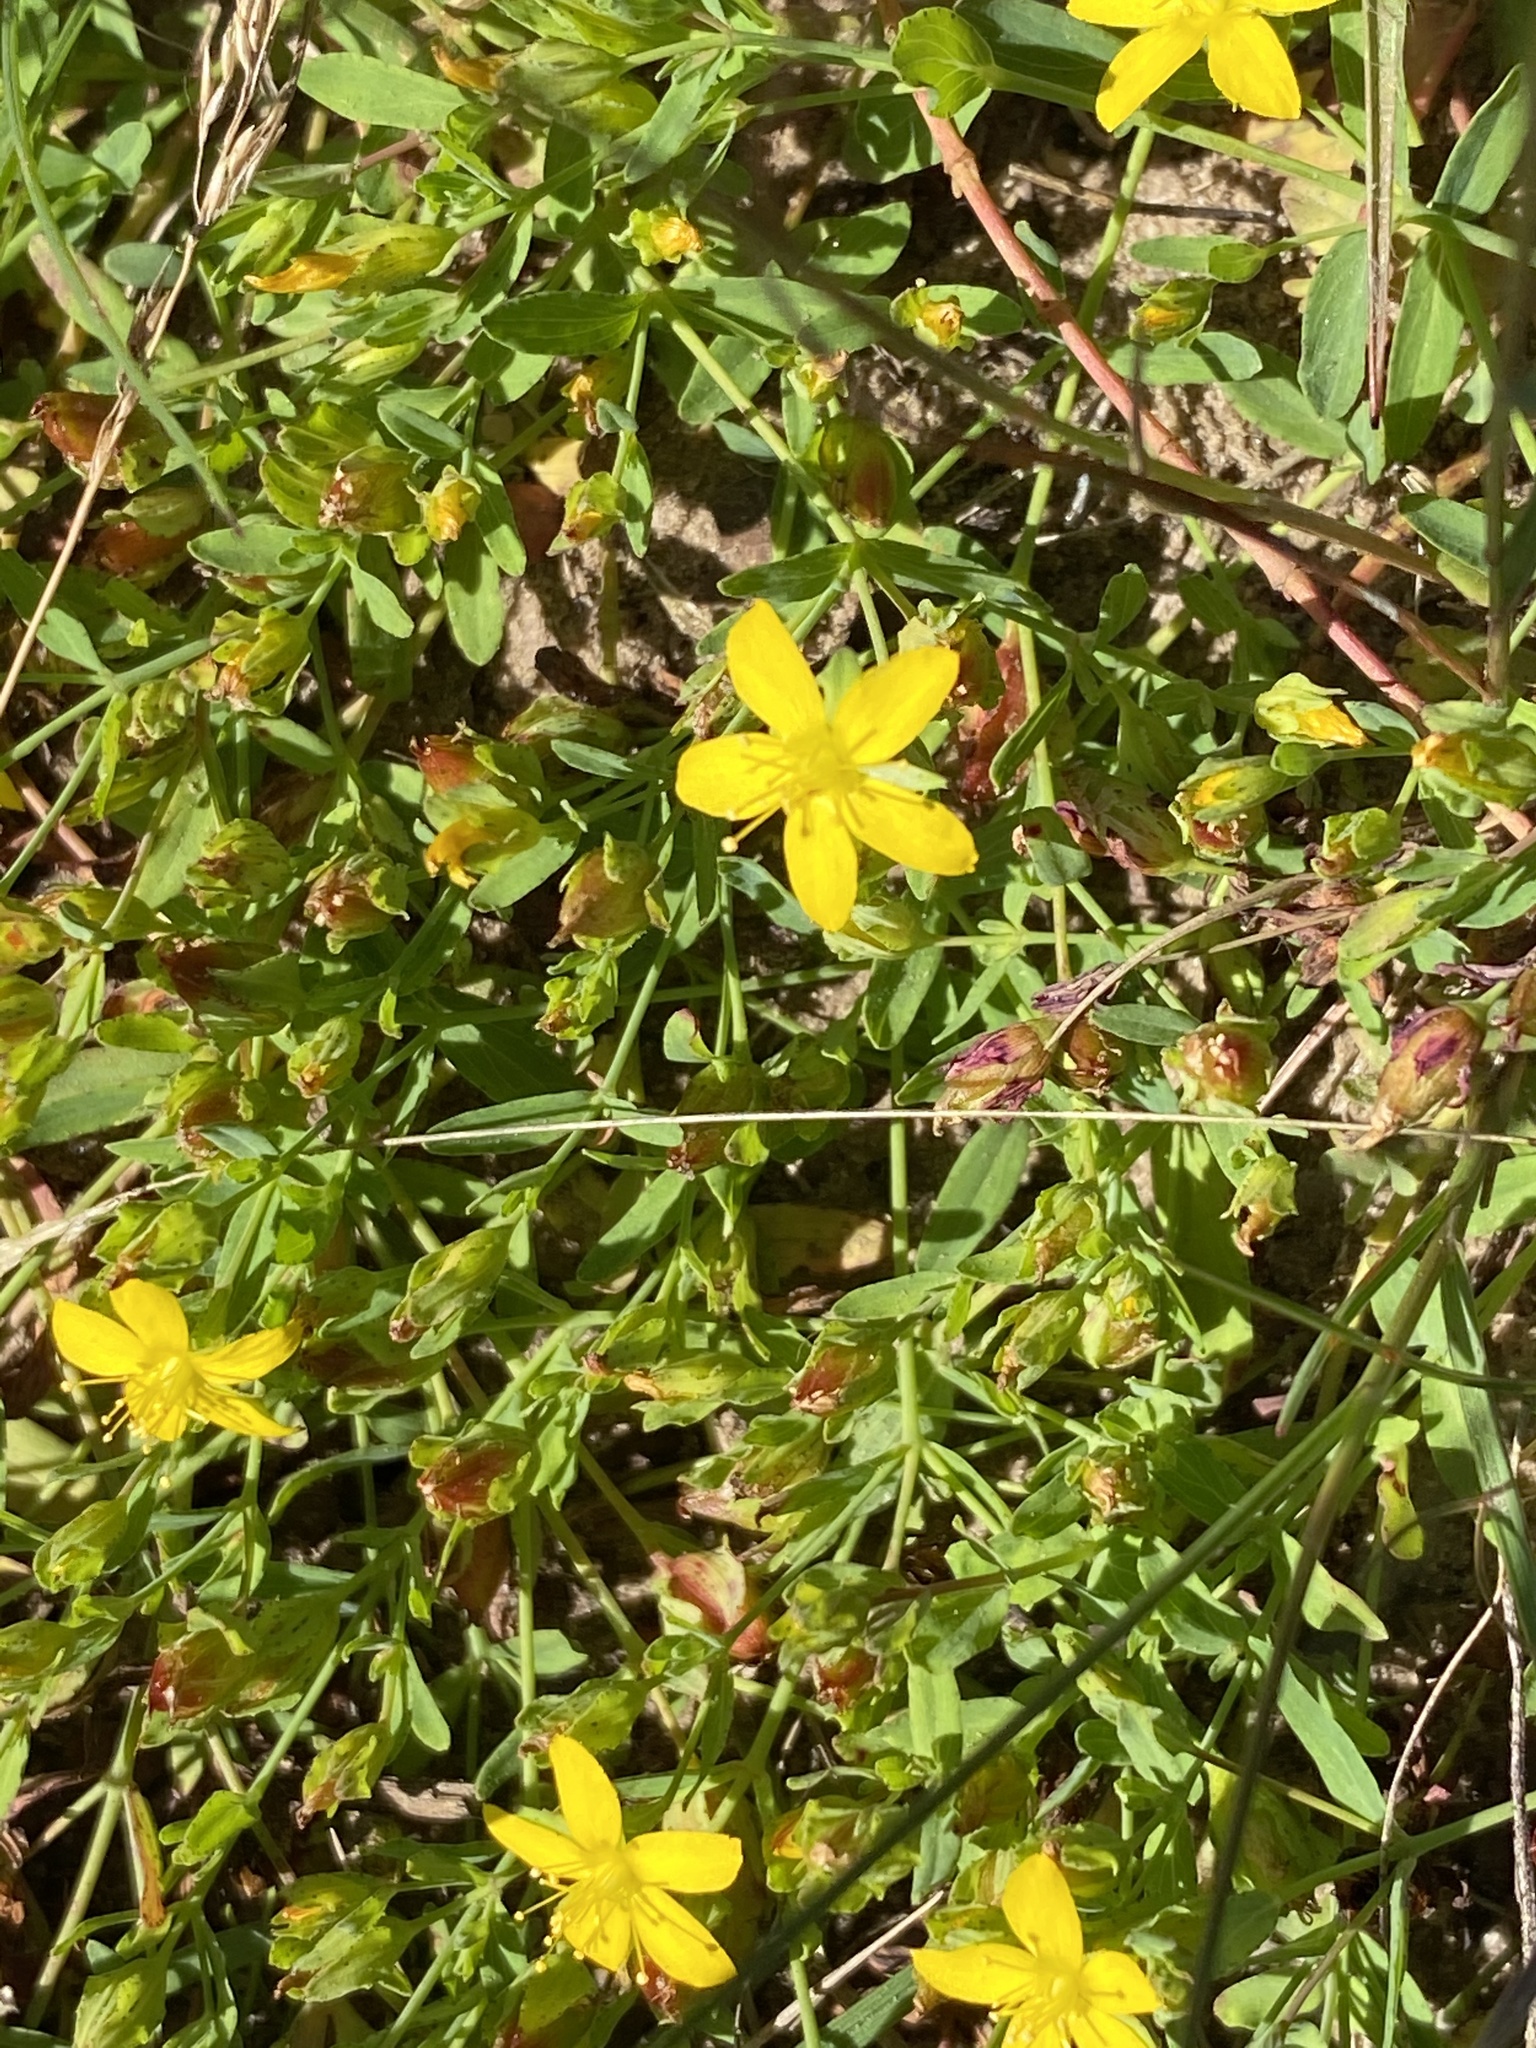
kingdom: Plantae
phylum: Tracheophyta
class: Magnoliopsida
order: Malpighiales
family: Hypericaceae
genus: Hypericum
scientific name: Hypericum humifusum
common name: Trailing st. john's-wort
